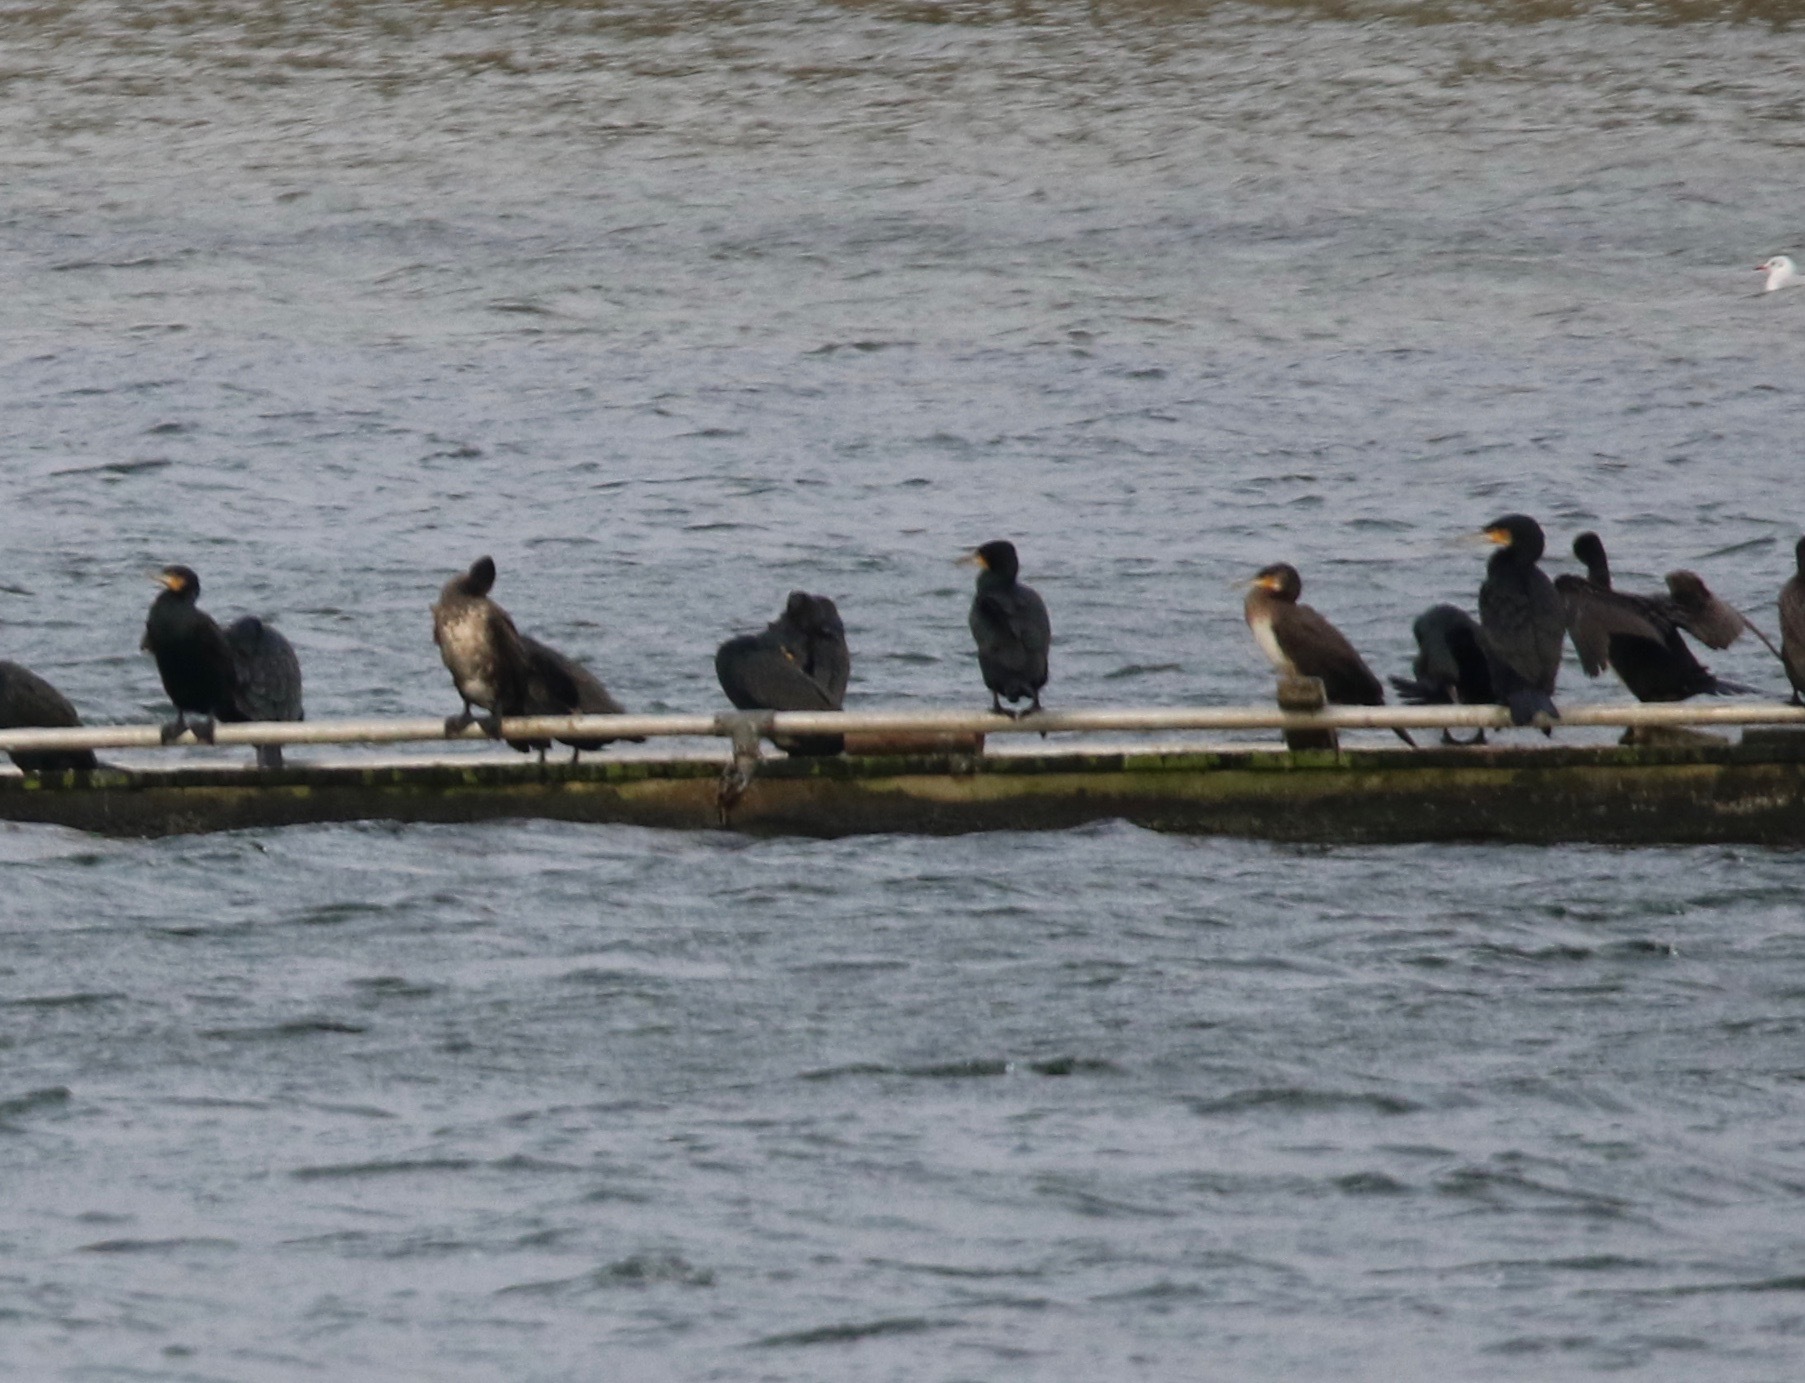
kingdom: Animalia
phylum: Chordata
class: Aves
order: Suliformes
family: Phalacrocoracidae
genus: Phalacrocorax
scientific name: Phalacrocorax carbo
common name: Great cormorant
